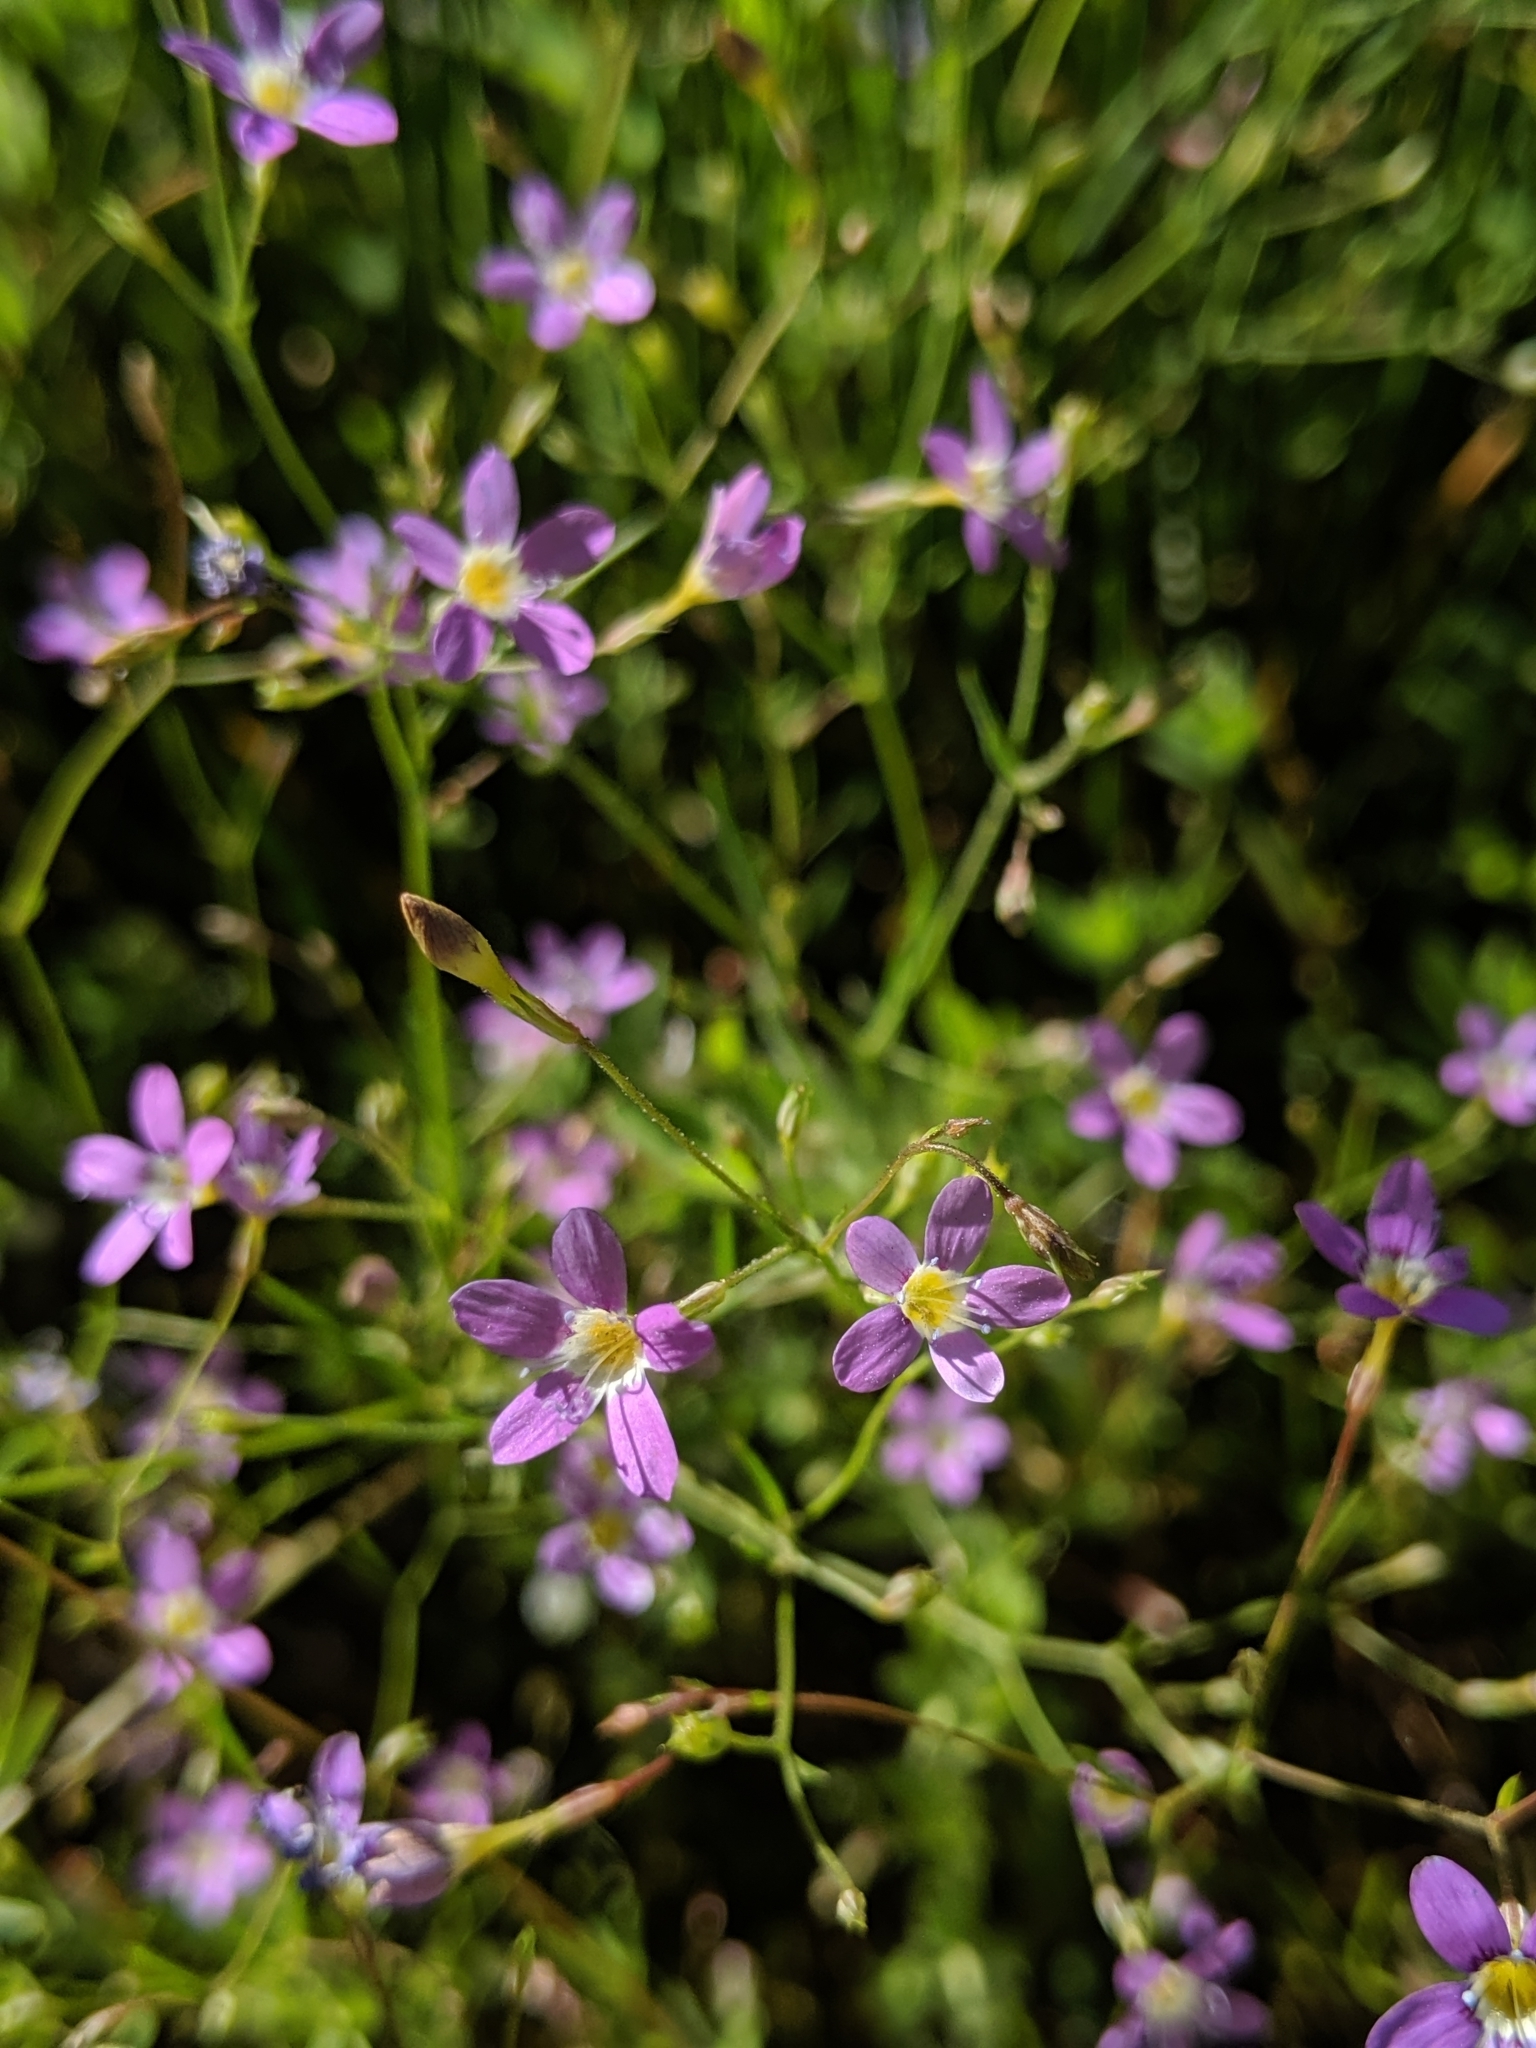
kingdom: Plantae
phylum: Tracheophyta
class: Magnoliopsida
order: Ericales
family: Polemoniaceae
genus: Navarretia
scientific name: Navarretia leptalea
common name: Bridges' pincushionplant
